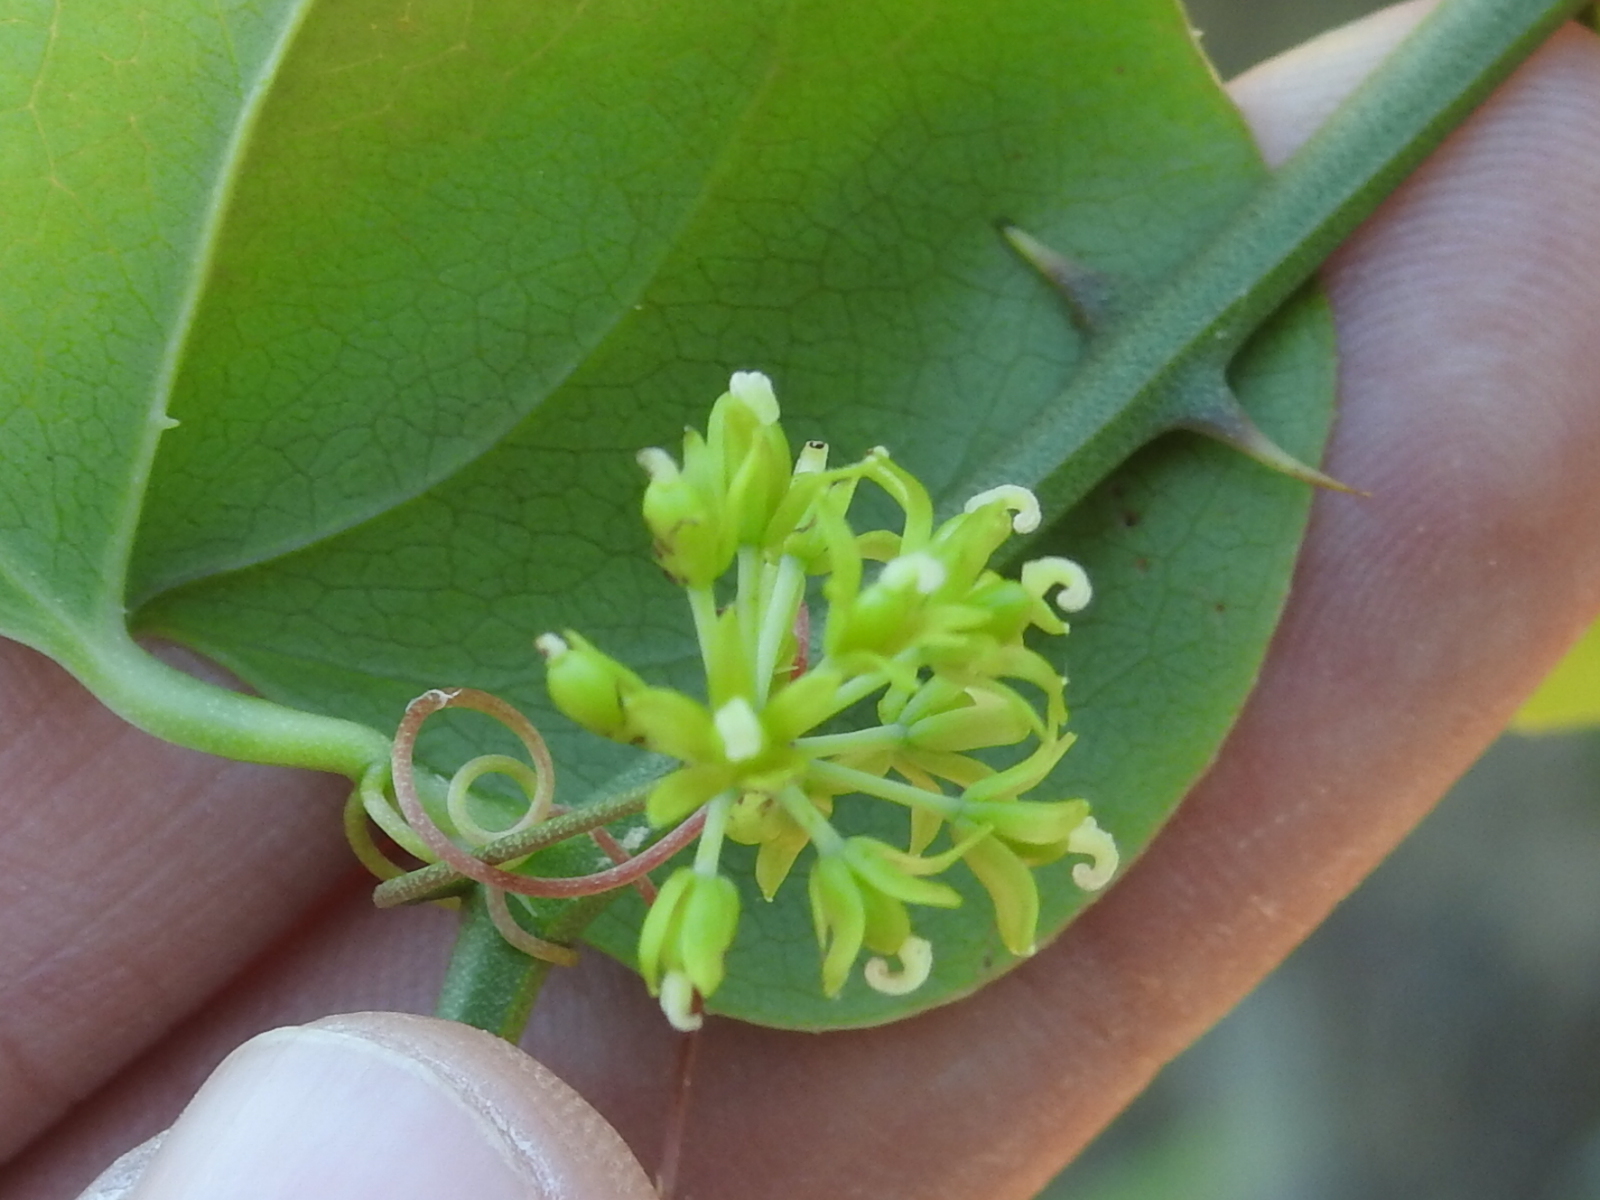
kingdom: Plantae
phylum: Tracheophyta
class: Liliopsida
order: Liliales
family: Smilacaceae
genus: Smilax
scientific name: Smilax bona-nox
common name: Catbrier
